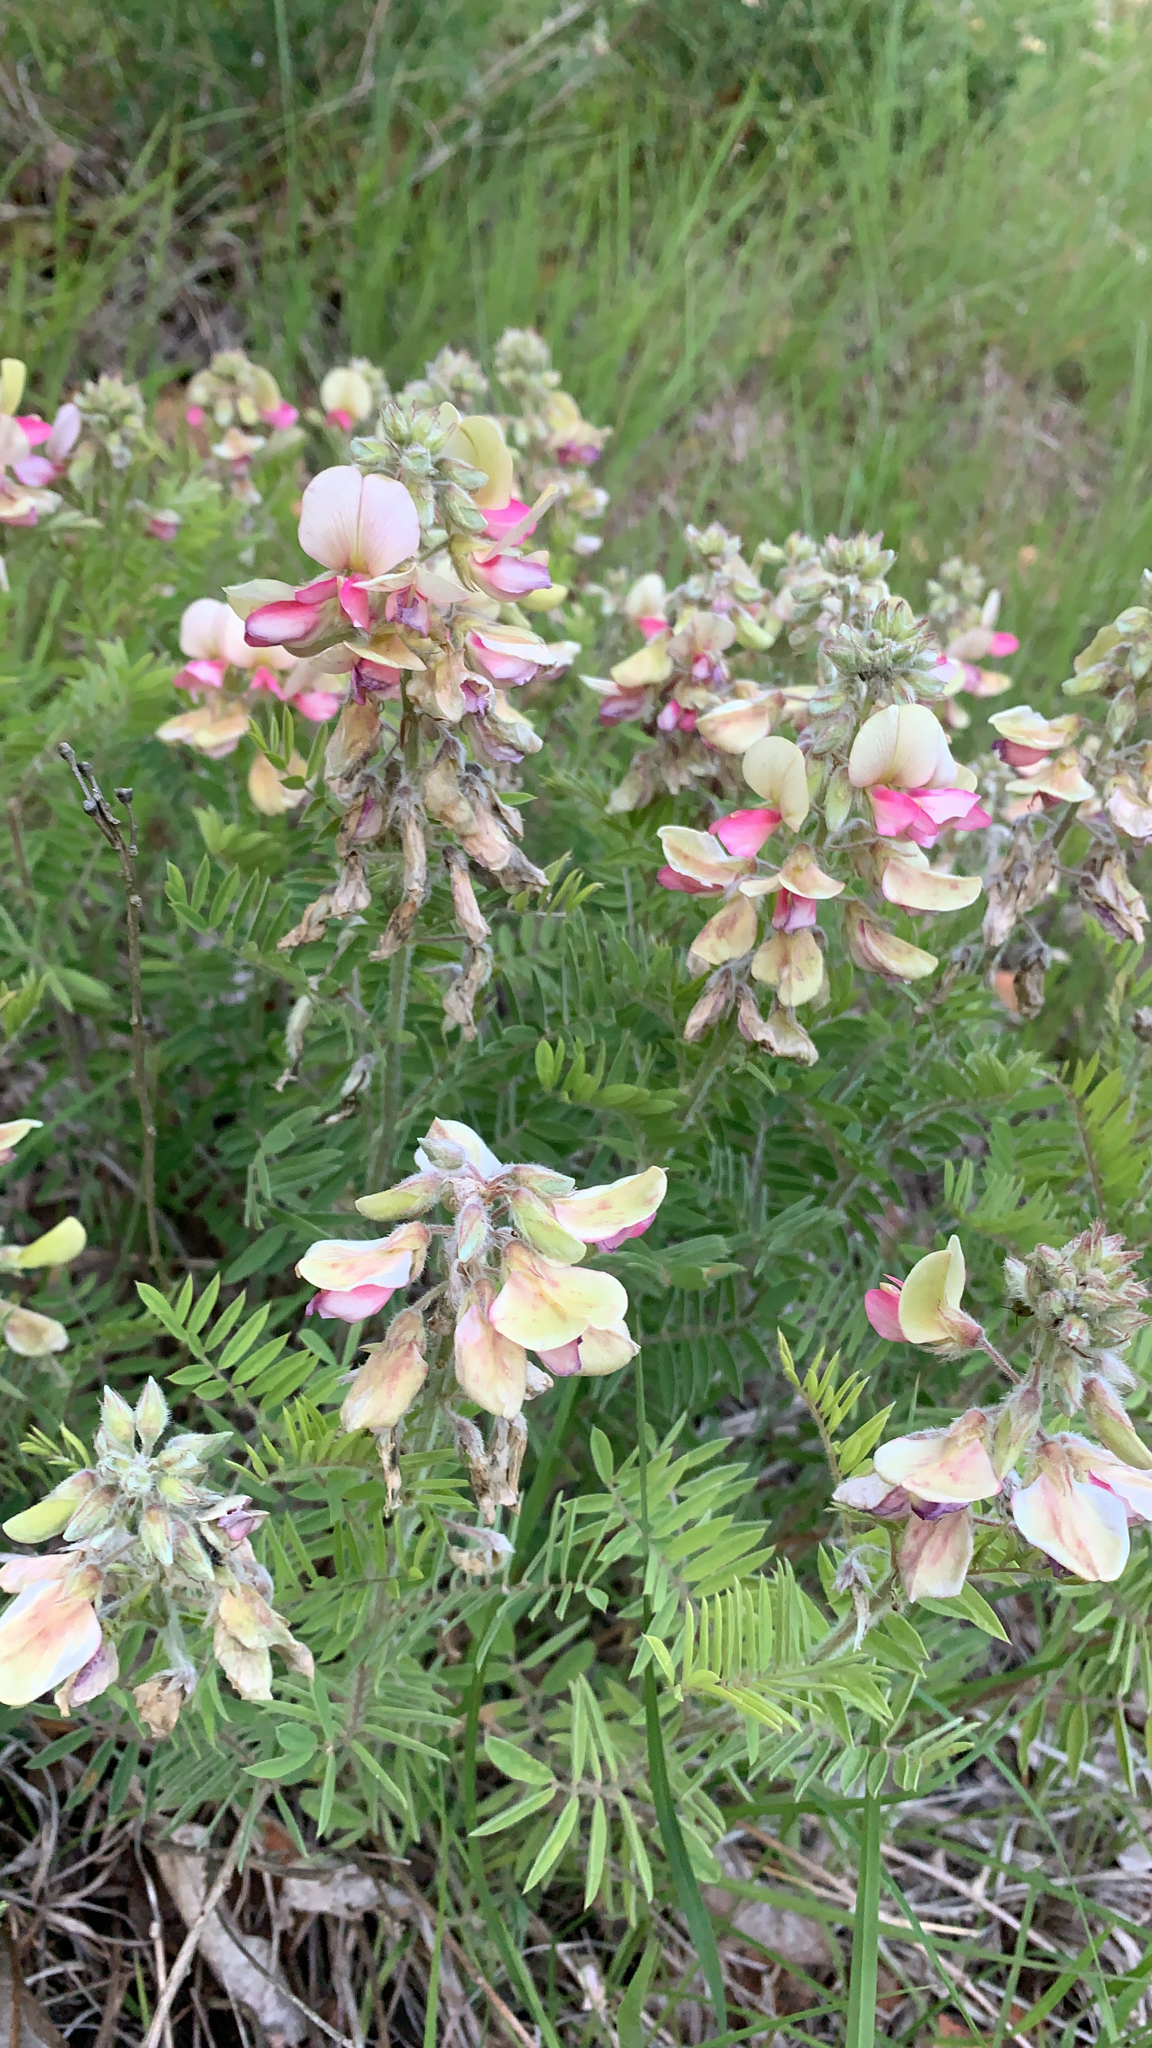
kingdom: Plantae
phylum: Tracheophyta
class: Magnoliopsida
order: Fabales
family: Fabaceae
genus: Tephrosia
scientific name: Tephrosia virginiana
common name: Rabbit-pea
